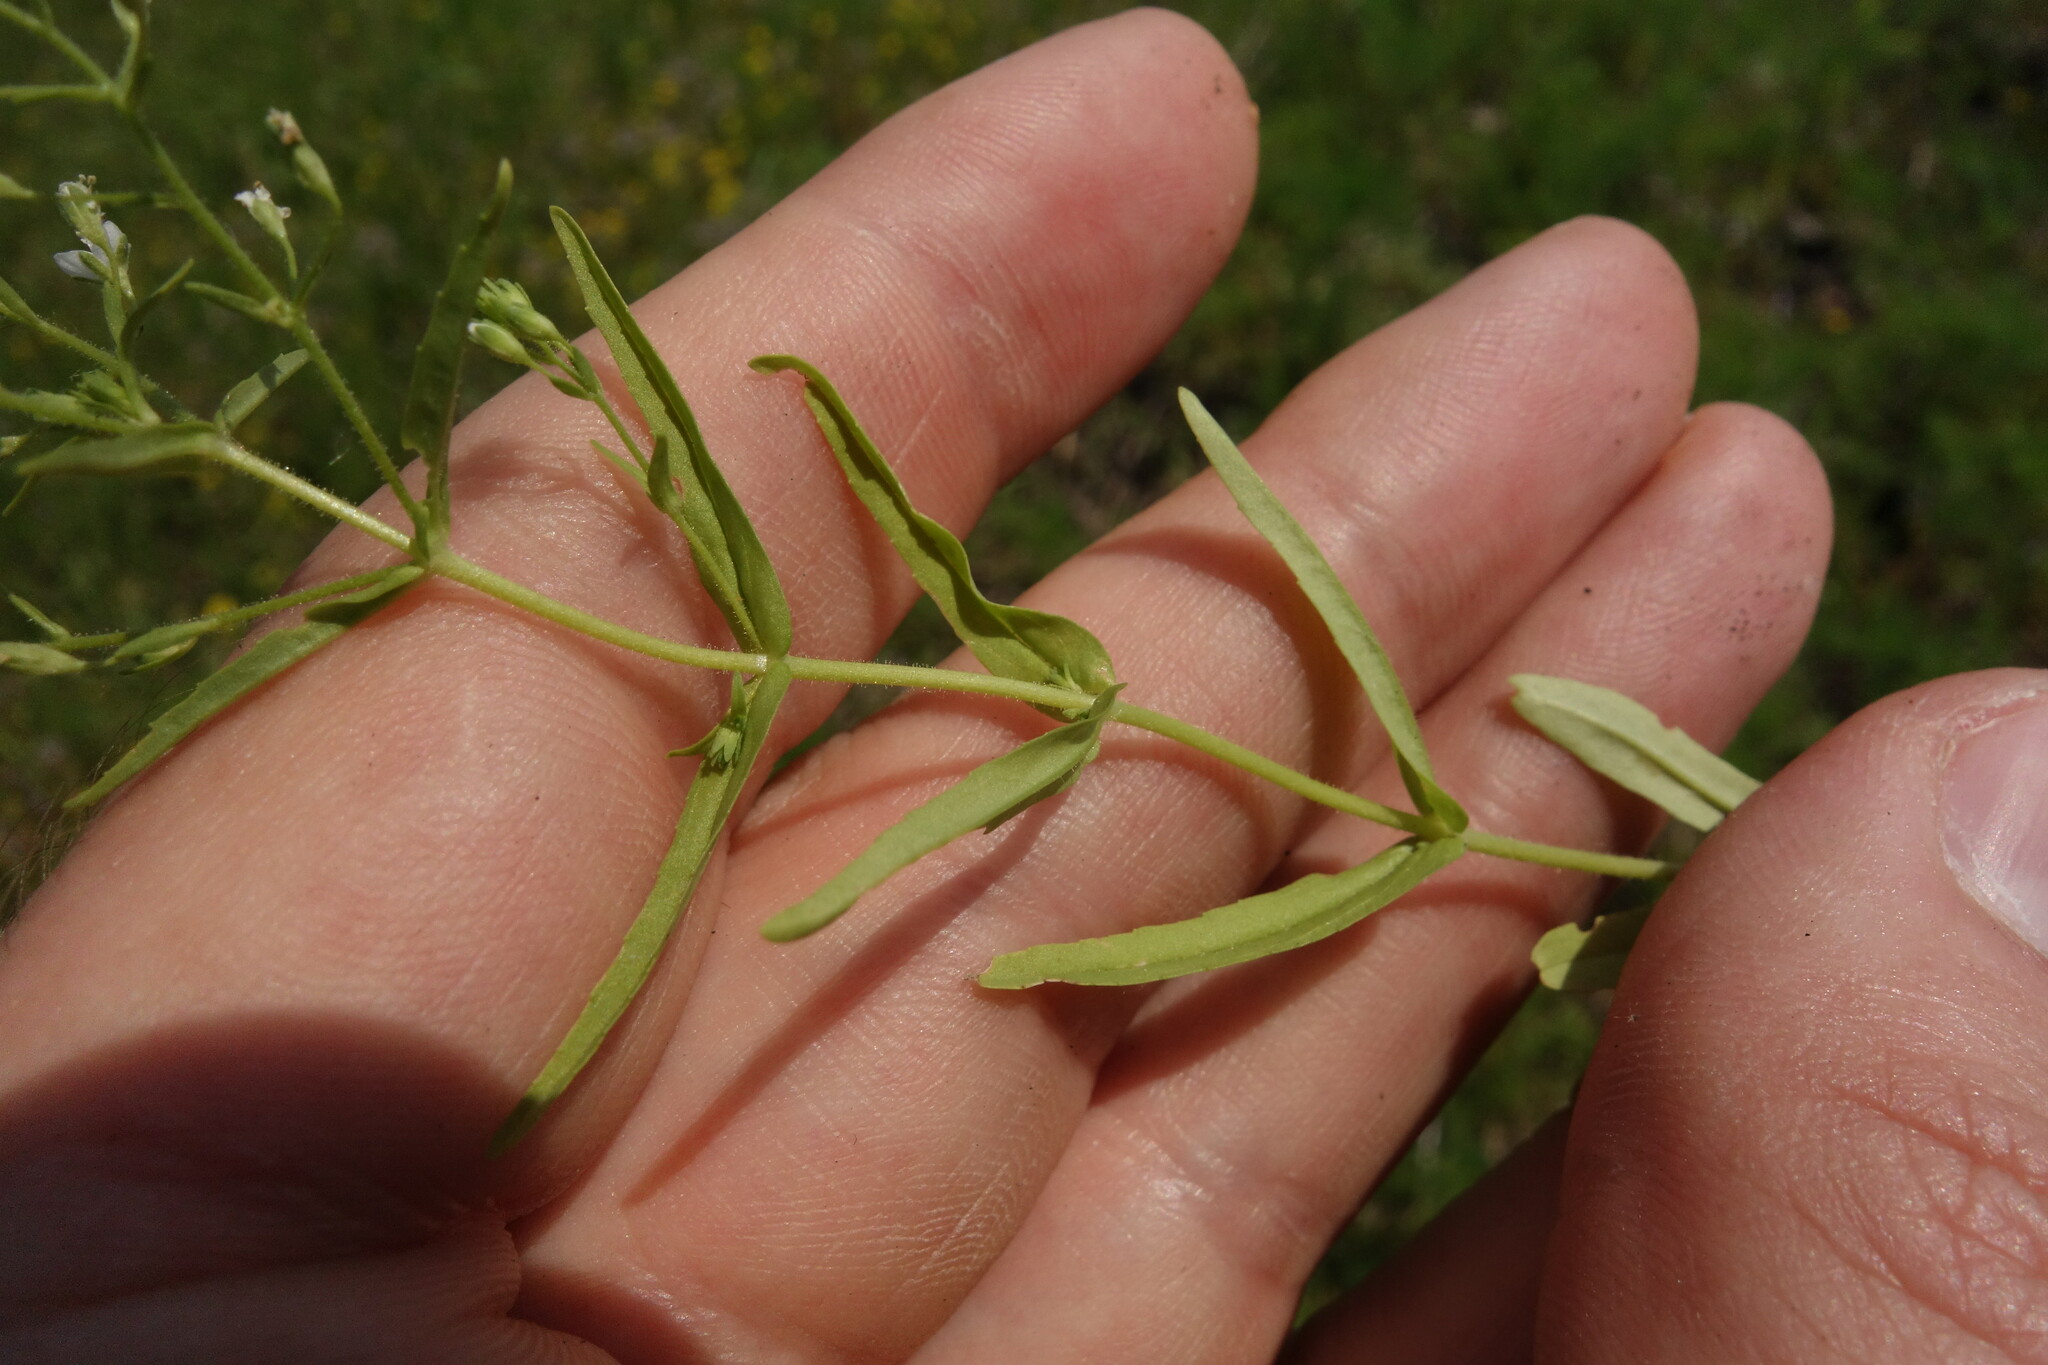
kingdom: Plantae
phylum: Tracheophyta
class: Magnoliopsida
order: Lamiales
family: Plantaginaceae
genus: Veronica
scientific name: Veronica scutellata
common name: Marsh speedwell
